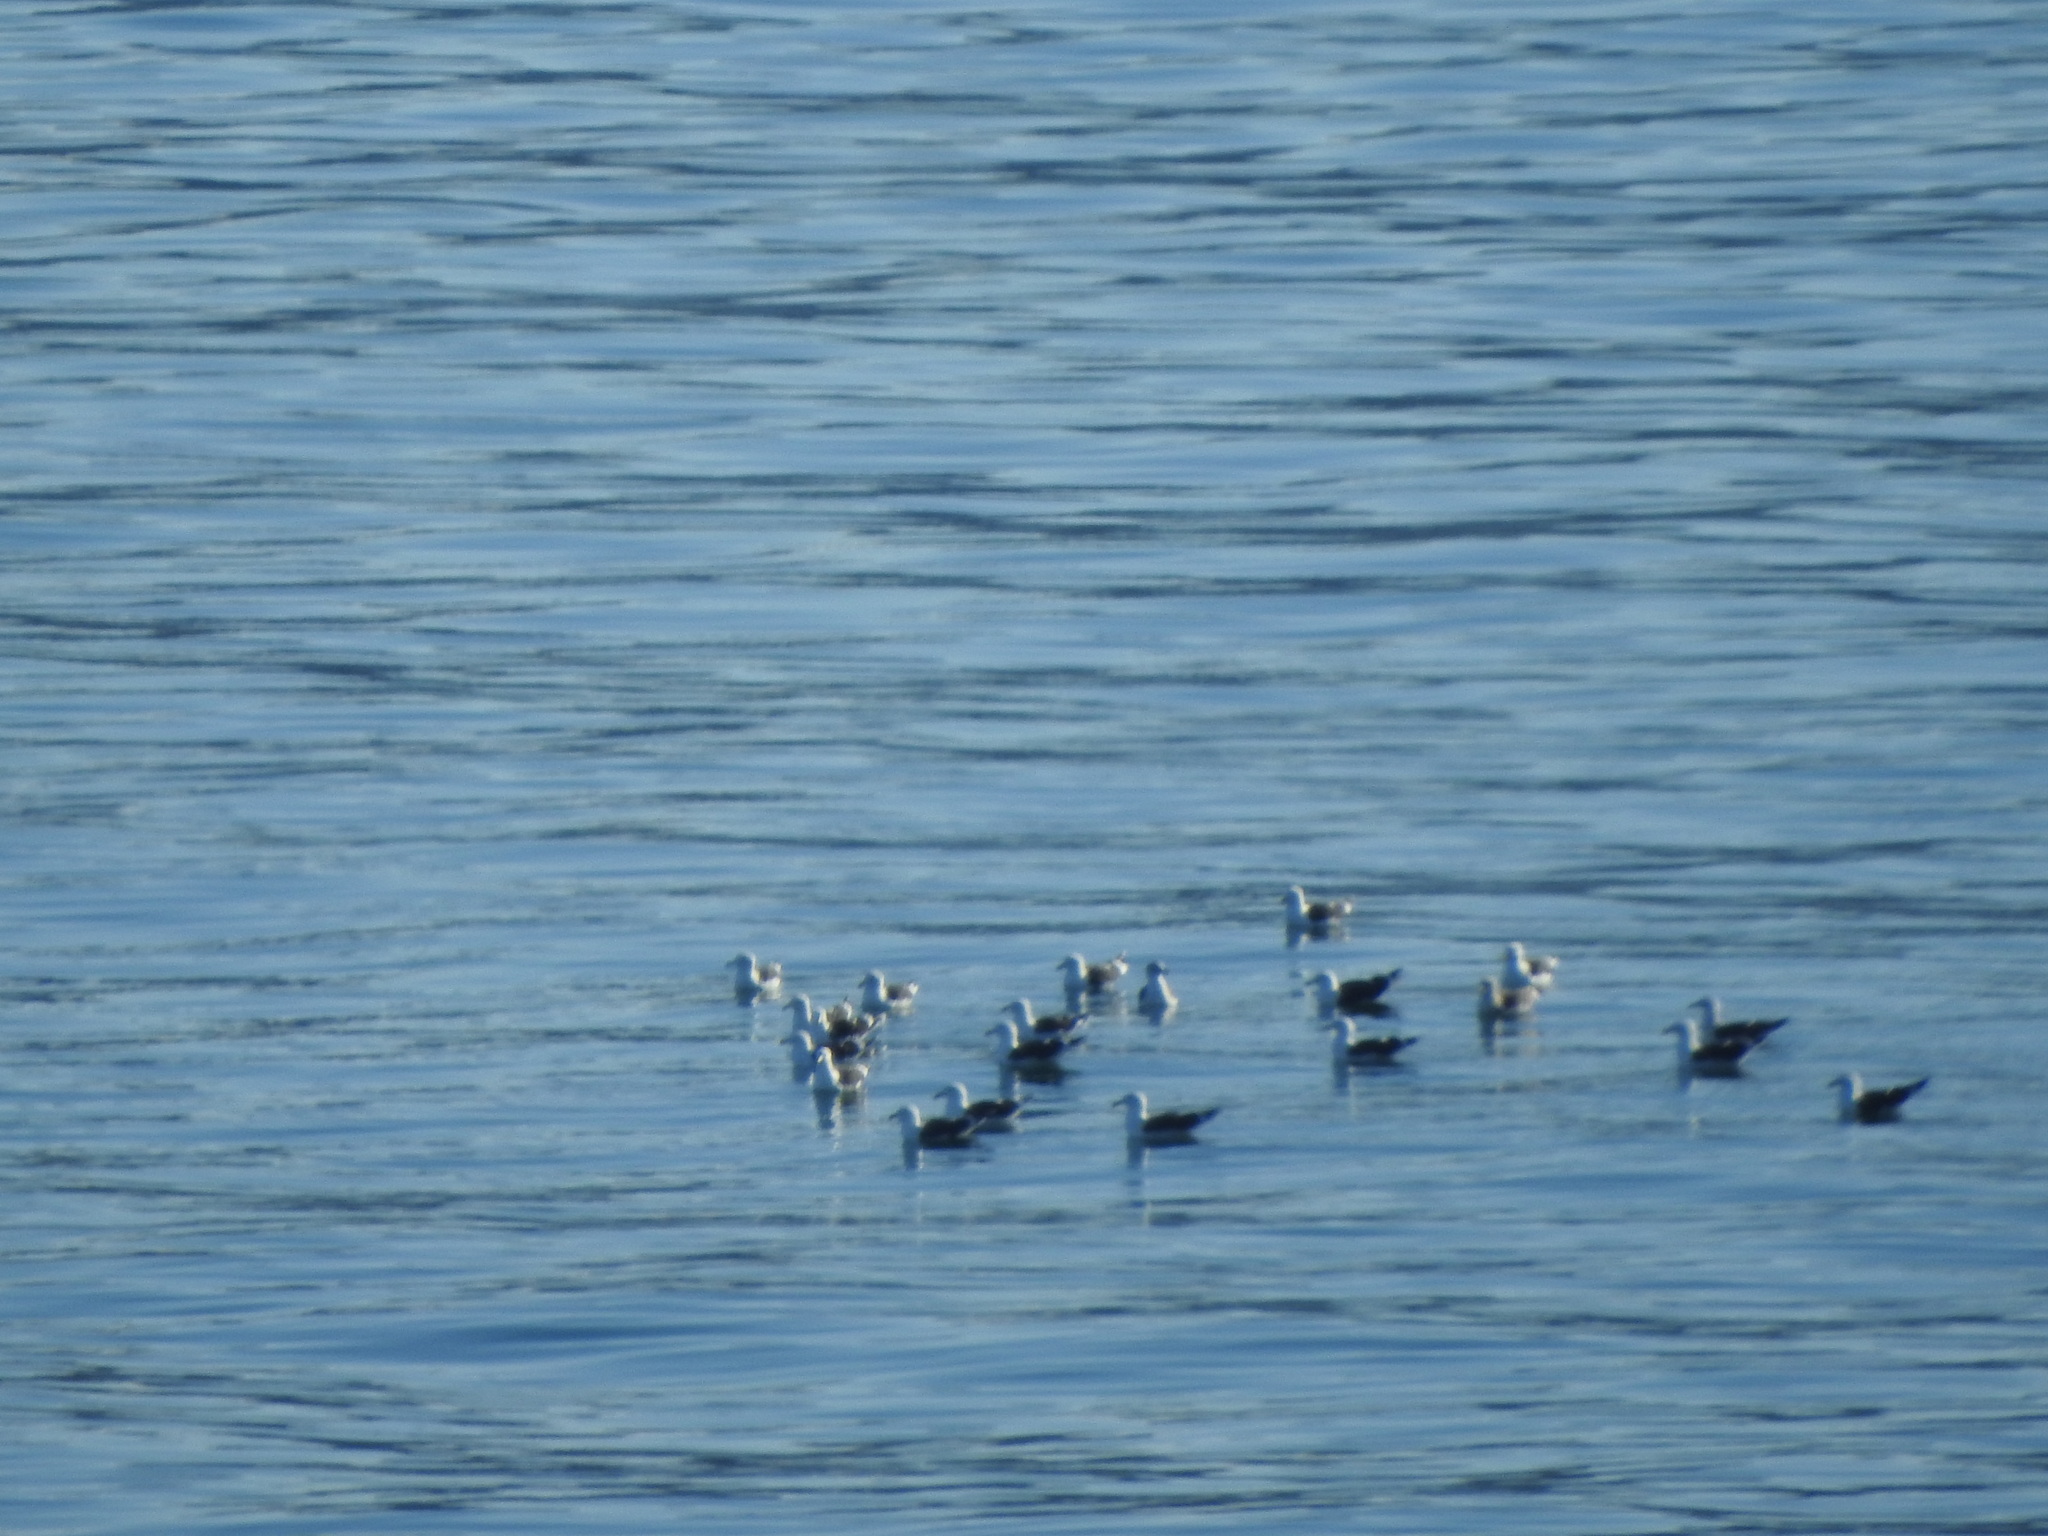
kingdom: Animalia
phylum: Chordata
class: Aves
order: Charadriiformes
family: Laridae
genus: Larus
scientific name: Larus dominicanus
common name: Kelp gull
